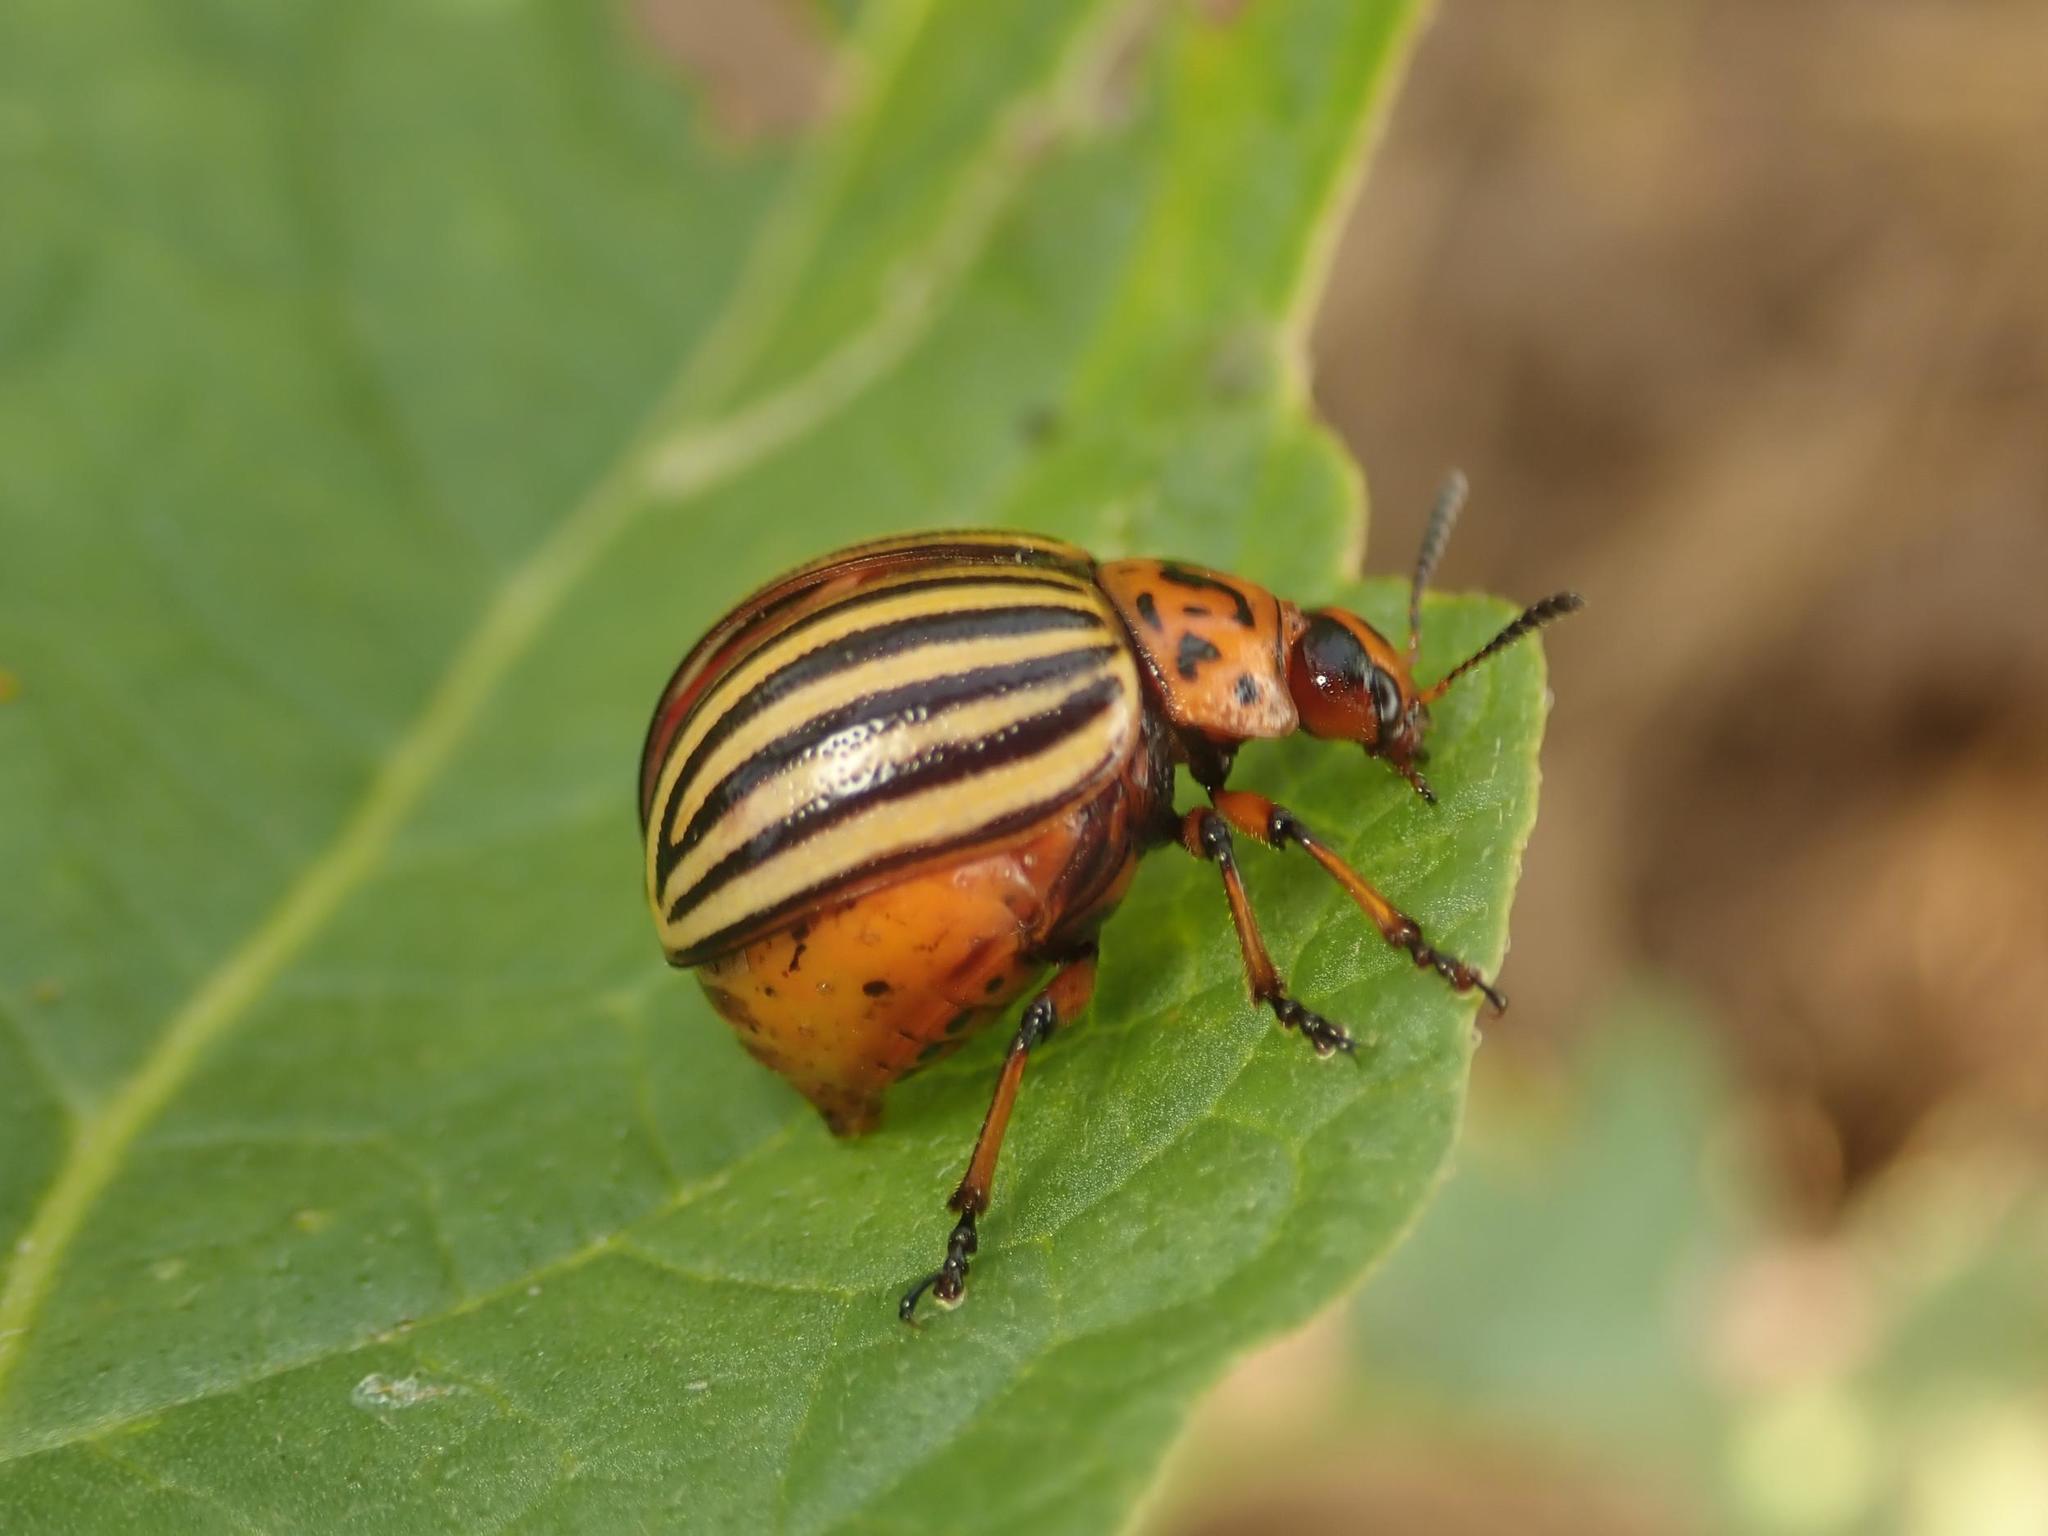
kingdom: Animalia
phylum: Arthropoda
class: Insecta
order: Coleoptera
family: Chrysomelidae
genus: Leptinotarsa
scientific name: Leptinotarsa decemlineata
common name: Colorado potato beetle
